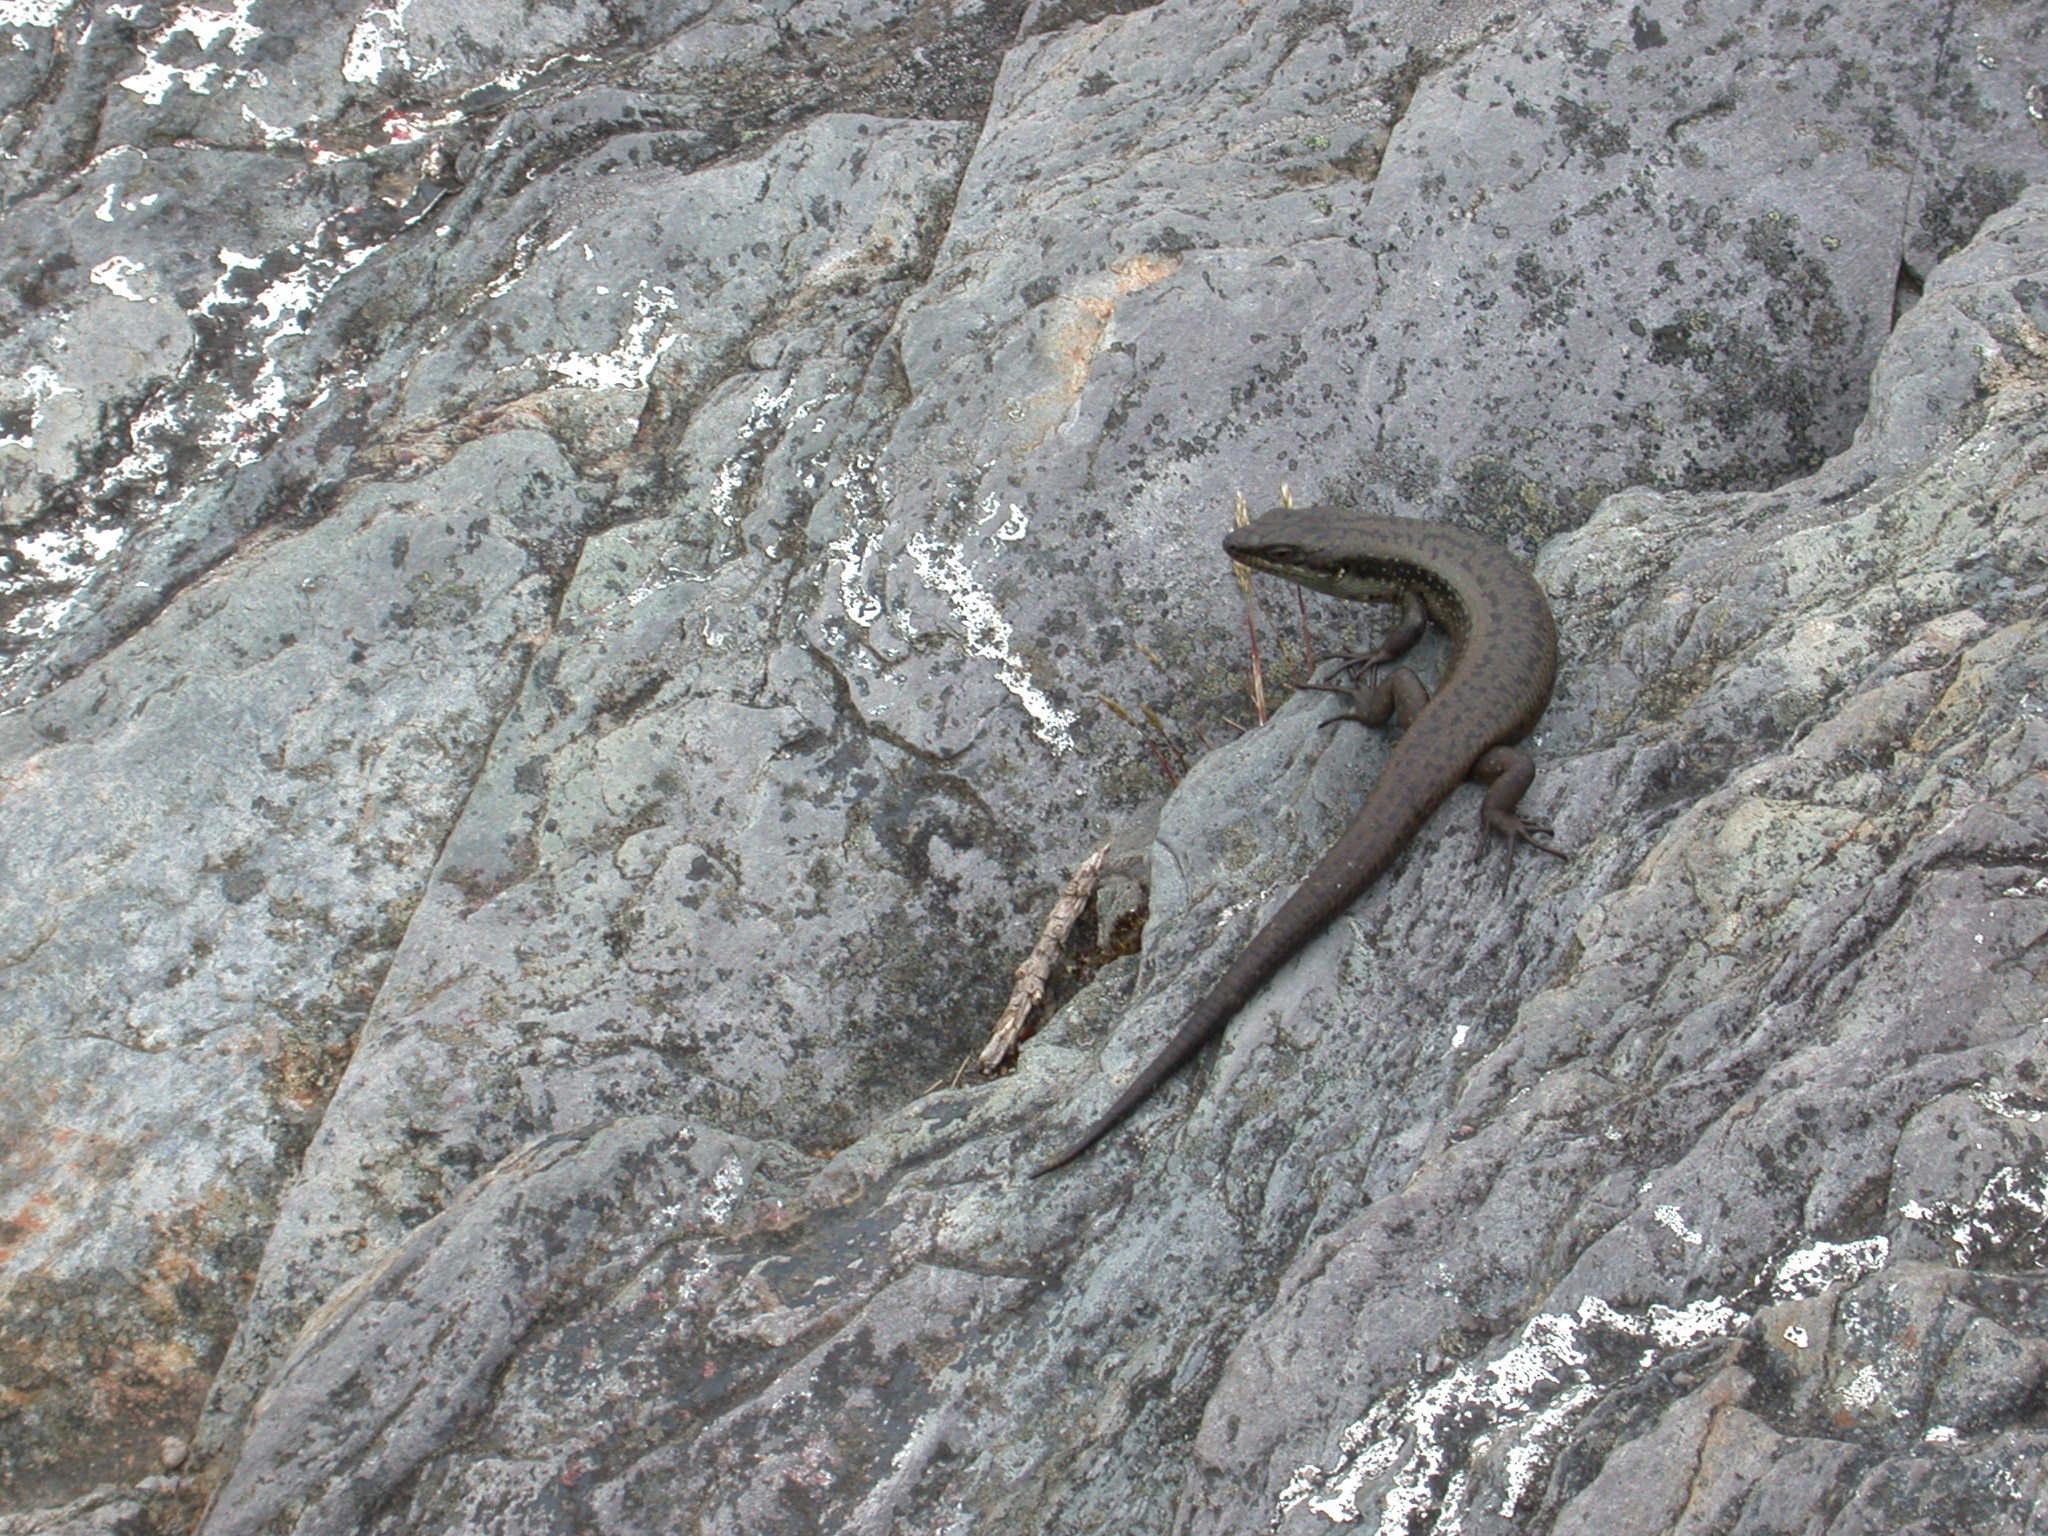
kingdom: Animalia
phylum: Chordata
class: Squamata
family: Scincidae
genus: Egernia
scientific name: Egernia napoleonis
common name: South-western crevice skink
